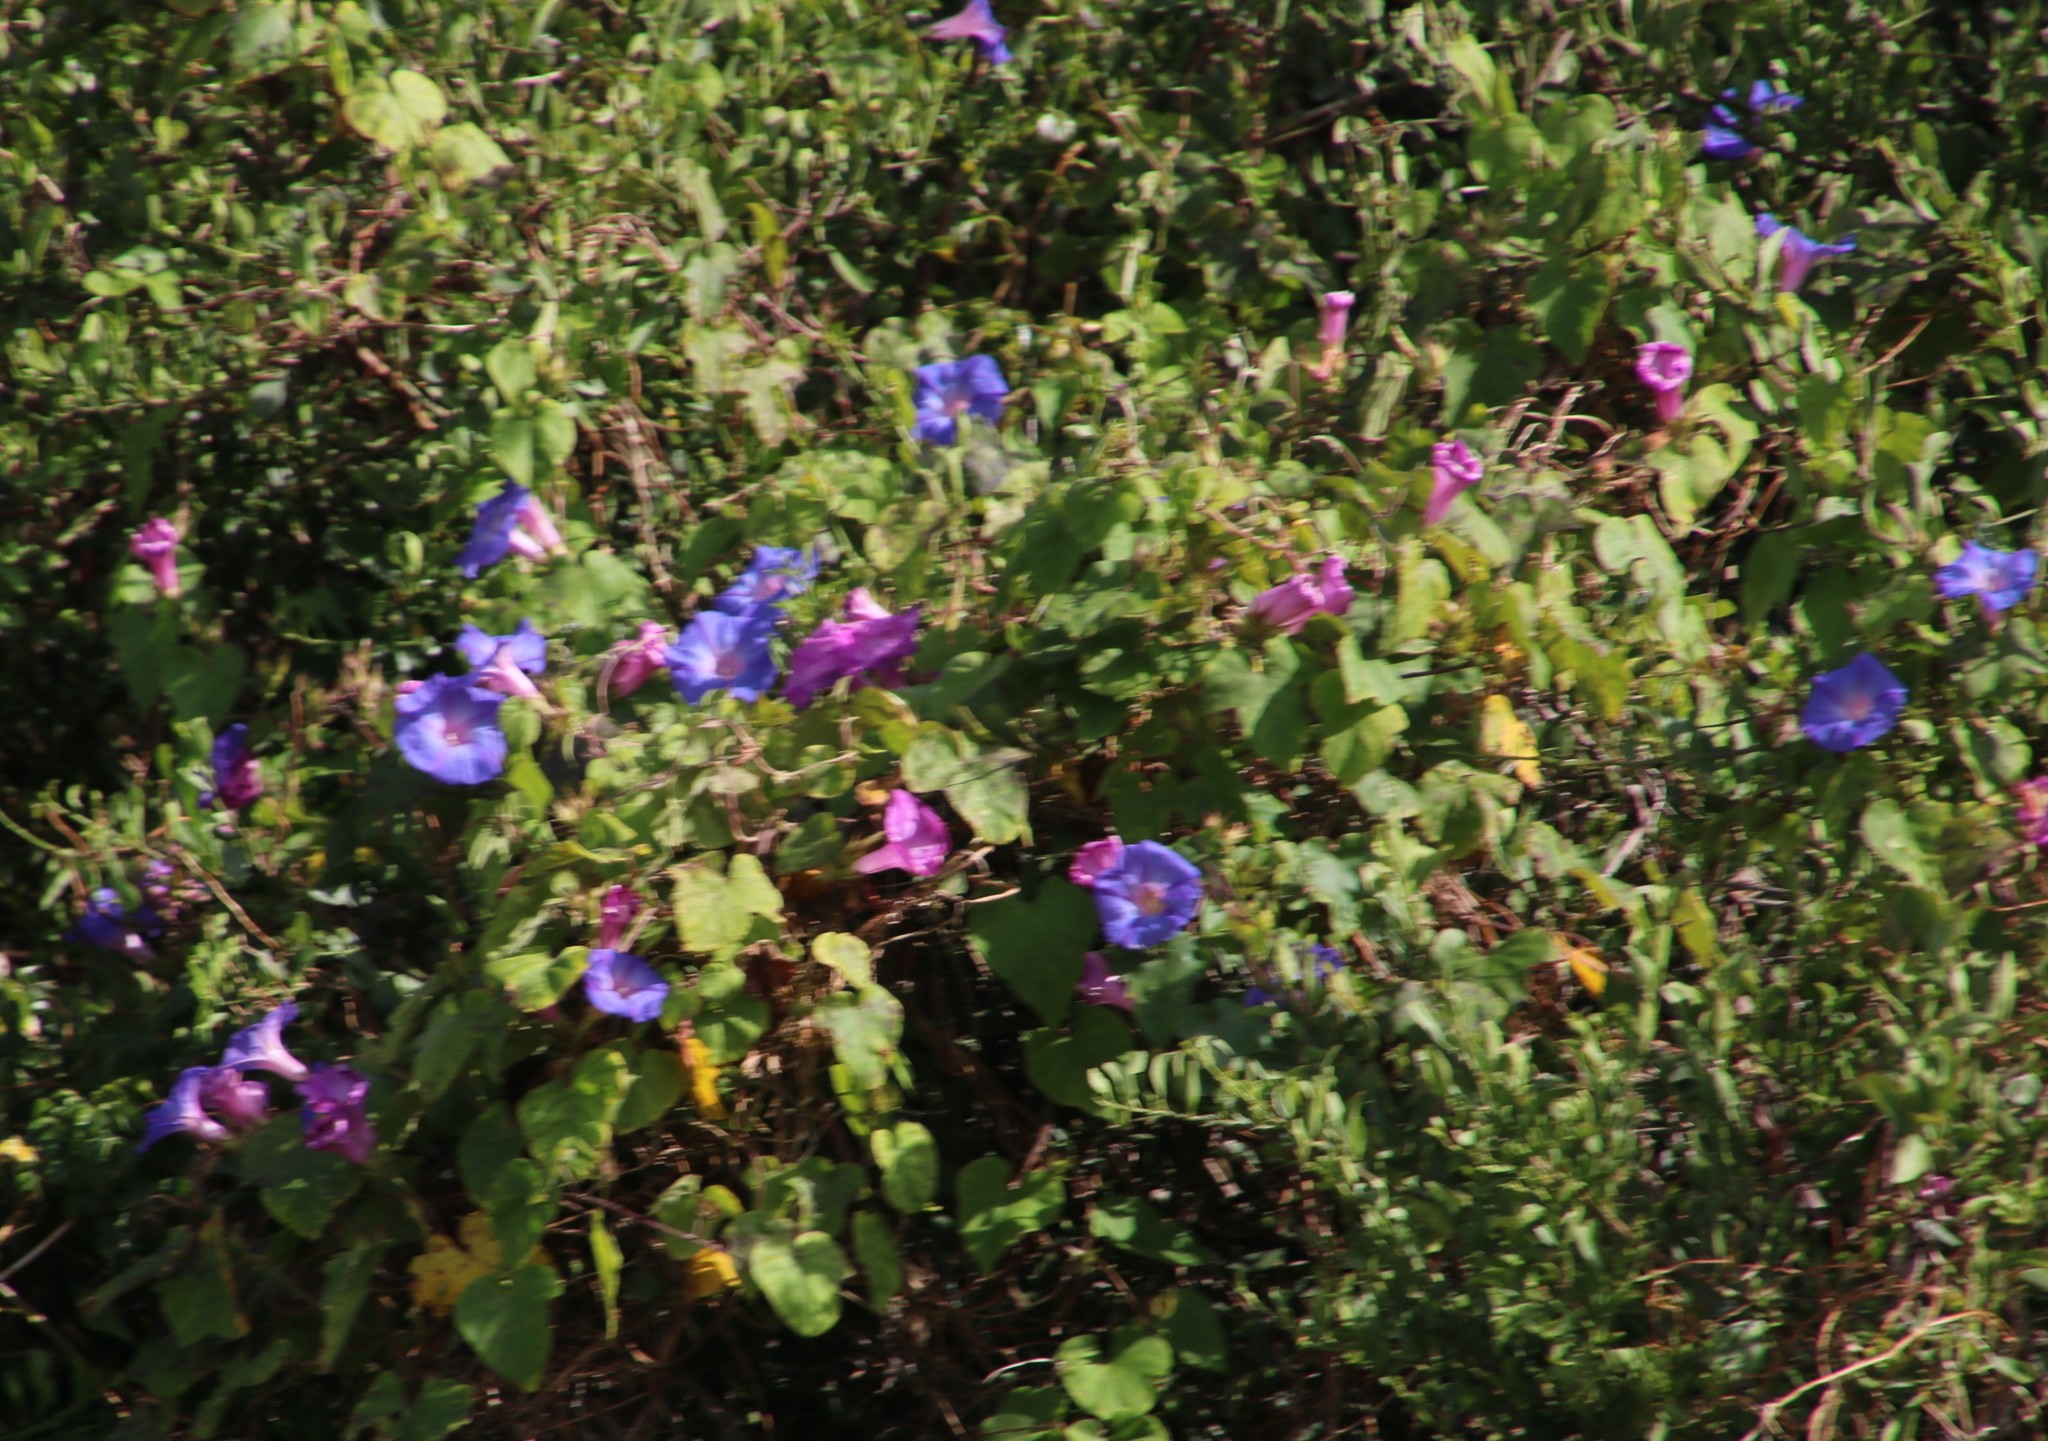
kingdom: Plantae
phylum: Tracheophyta
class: Magnoliopsida
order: Solanales
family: Convolvulaceae
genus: Ipomoea
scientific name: Ipomoea indica
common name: Blue dawnflower
